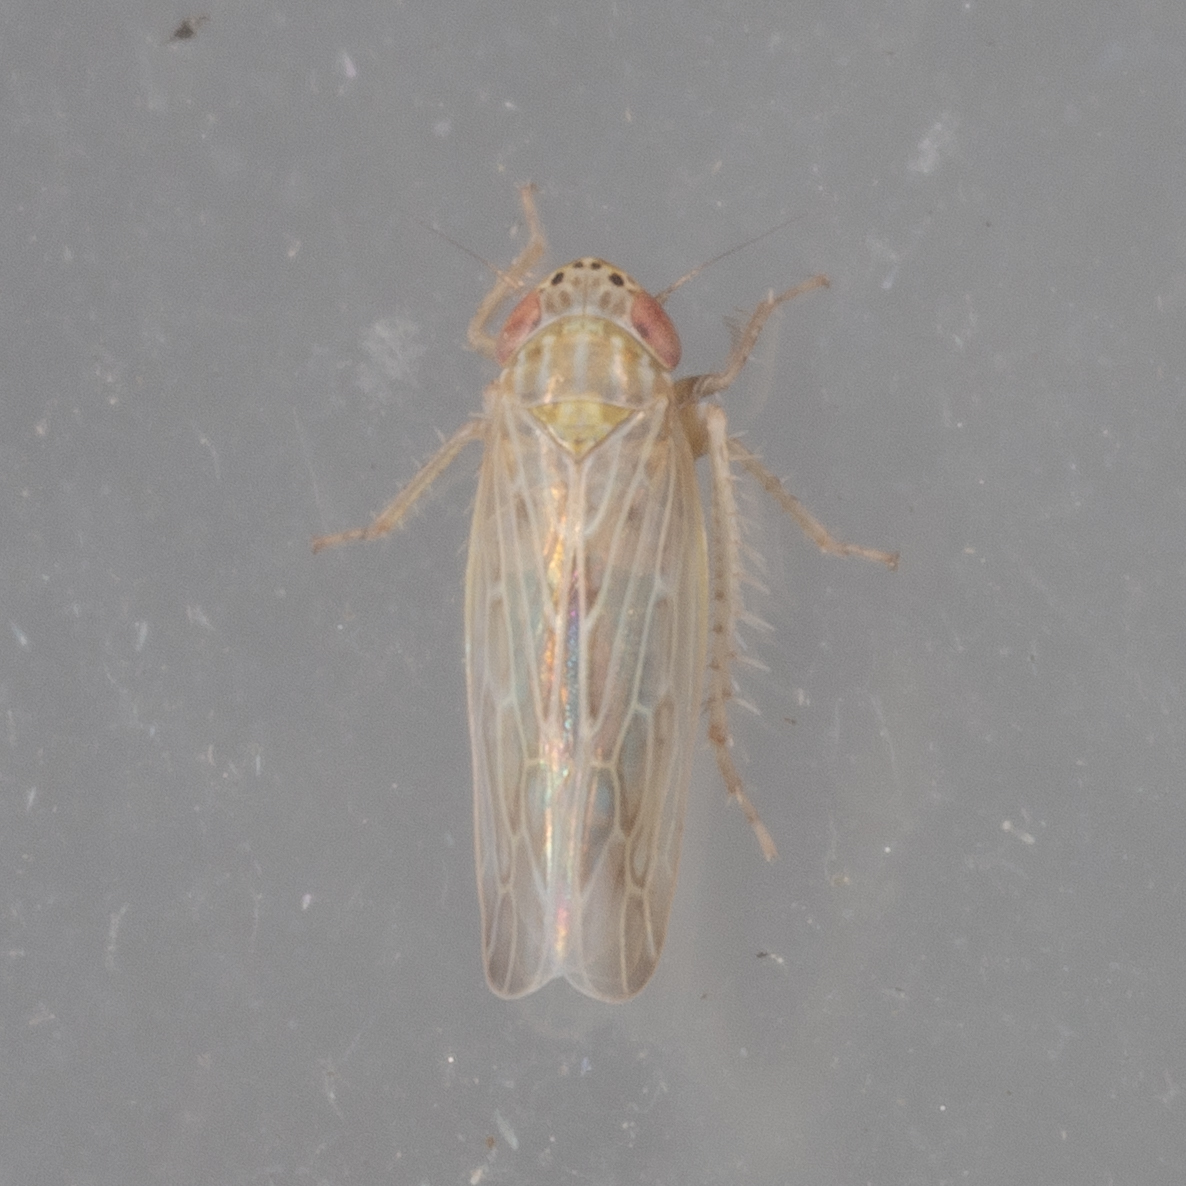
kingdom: Animalia
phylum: Arthropoda
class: Insecta
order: Hemiptera
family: Cicadellidae
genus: Graminella
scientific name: Graminella sonora
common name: Lesser lawn leafhopper
